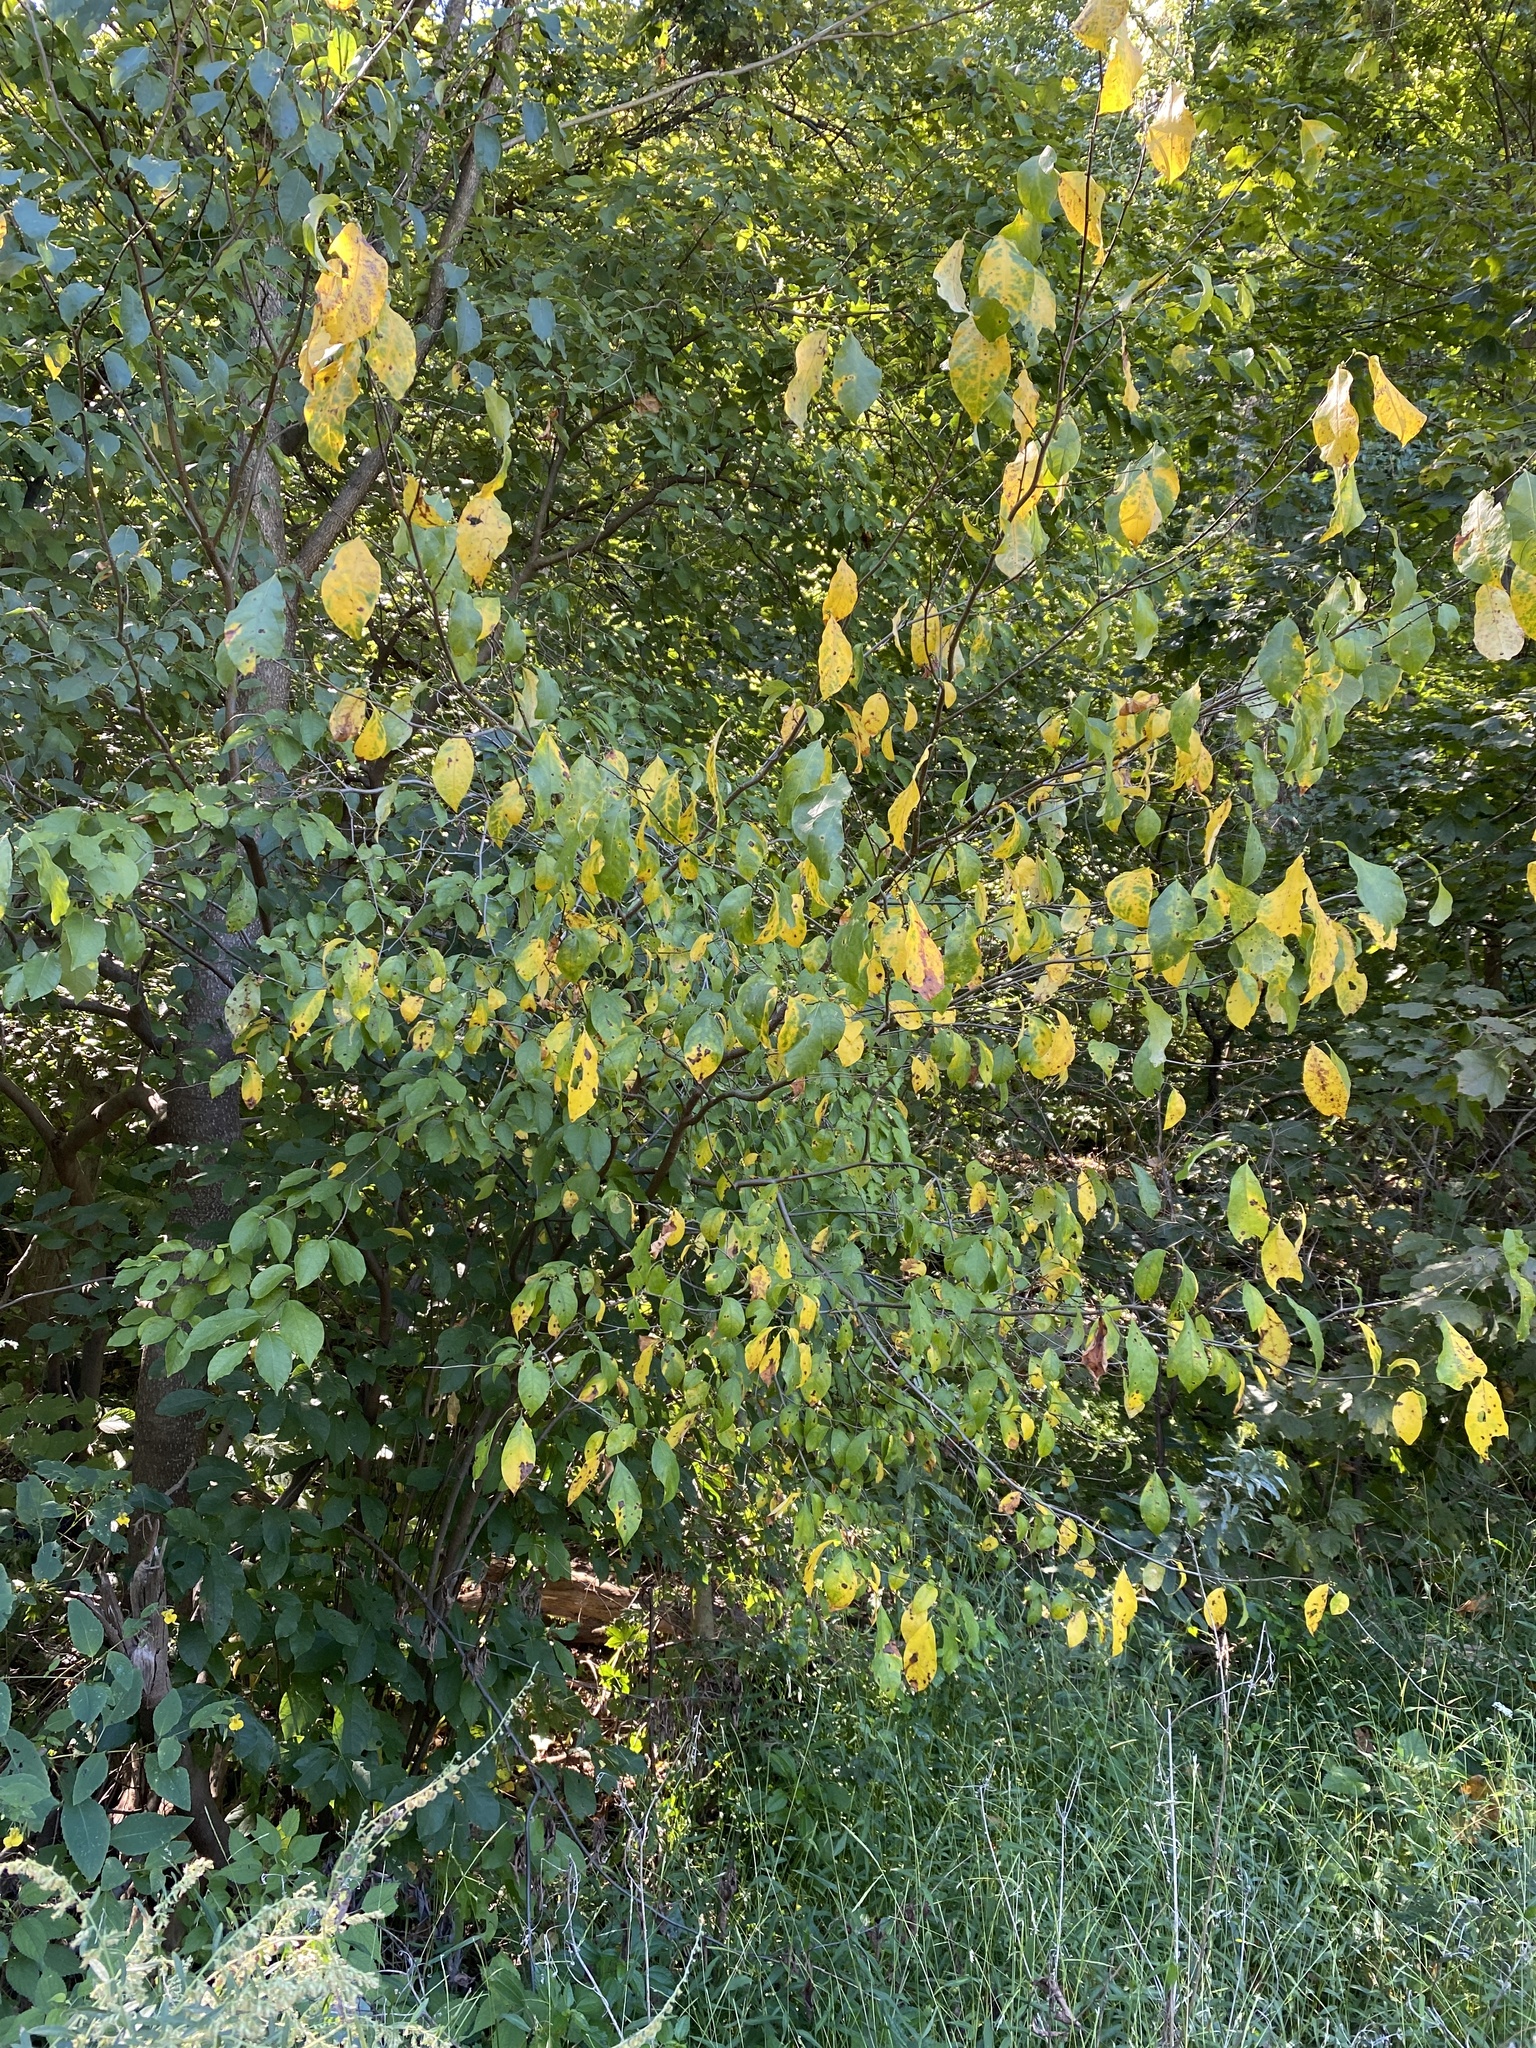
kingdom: Plantae
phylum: Tracheophyta
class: Magnoliopsida
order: Laurales
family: Lauraceae
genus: Lindera
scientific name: Lindera benzoin
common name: Spicebush
